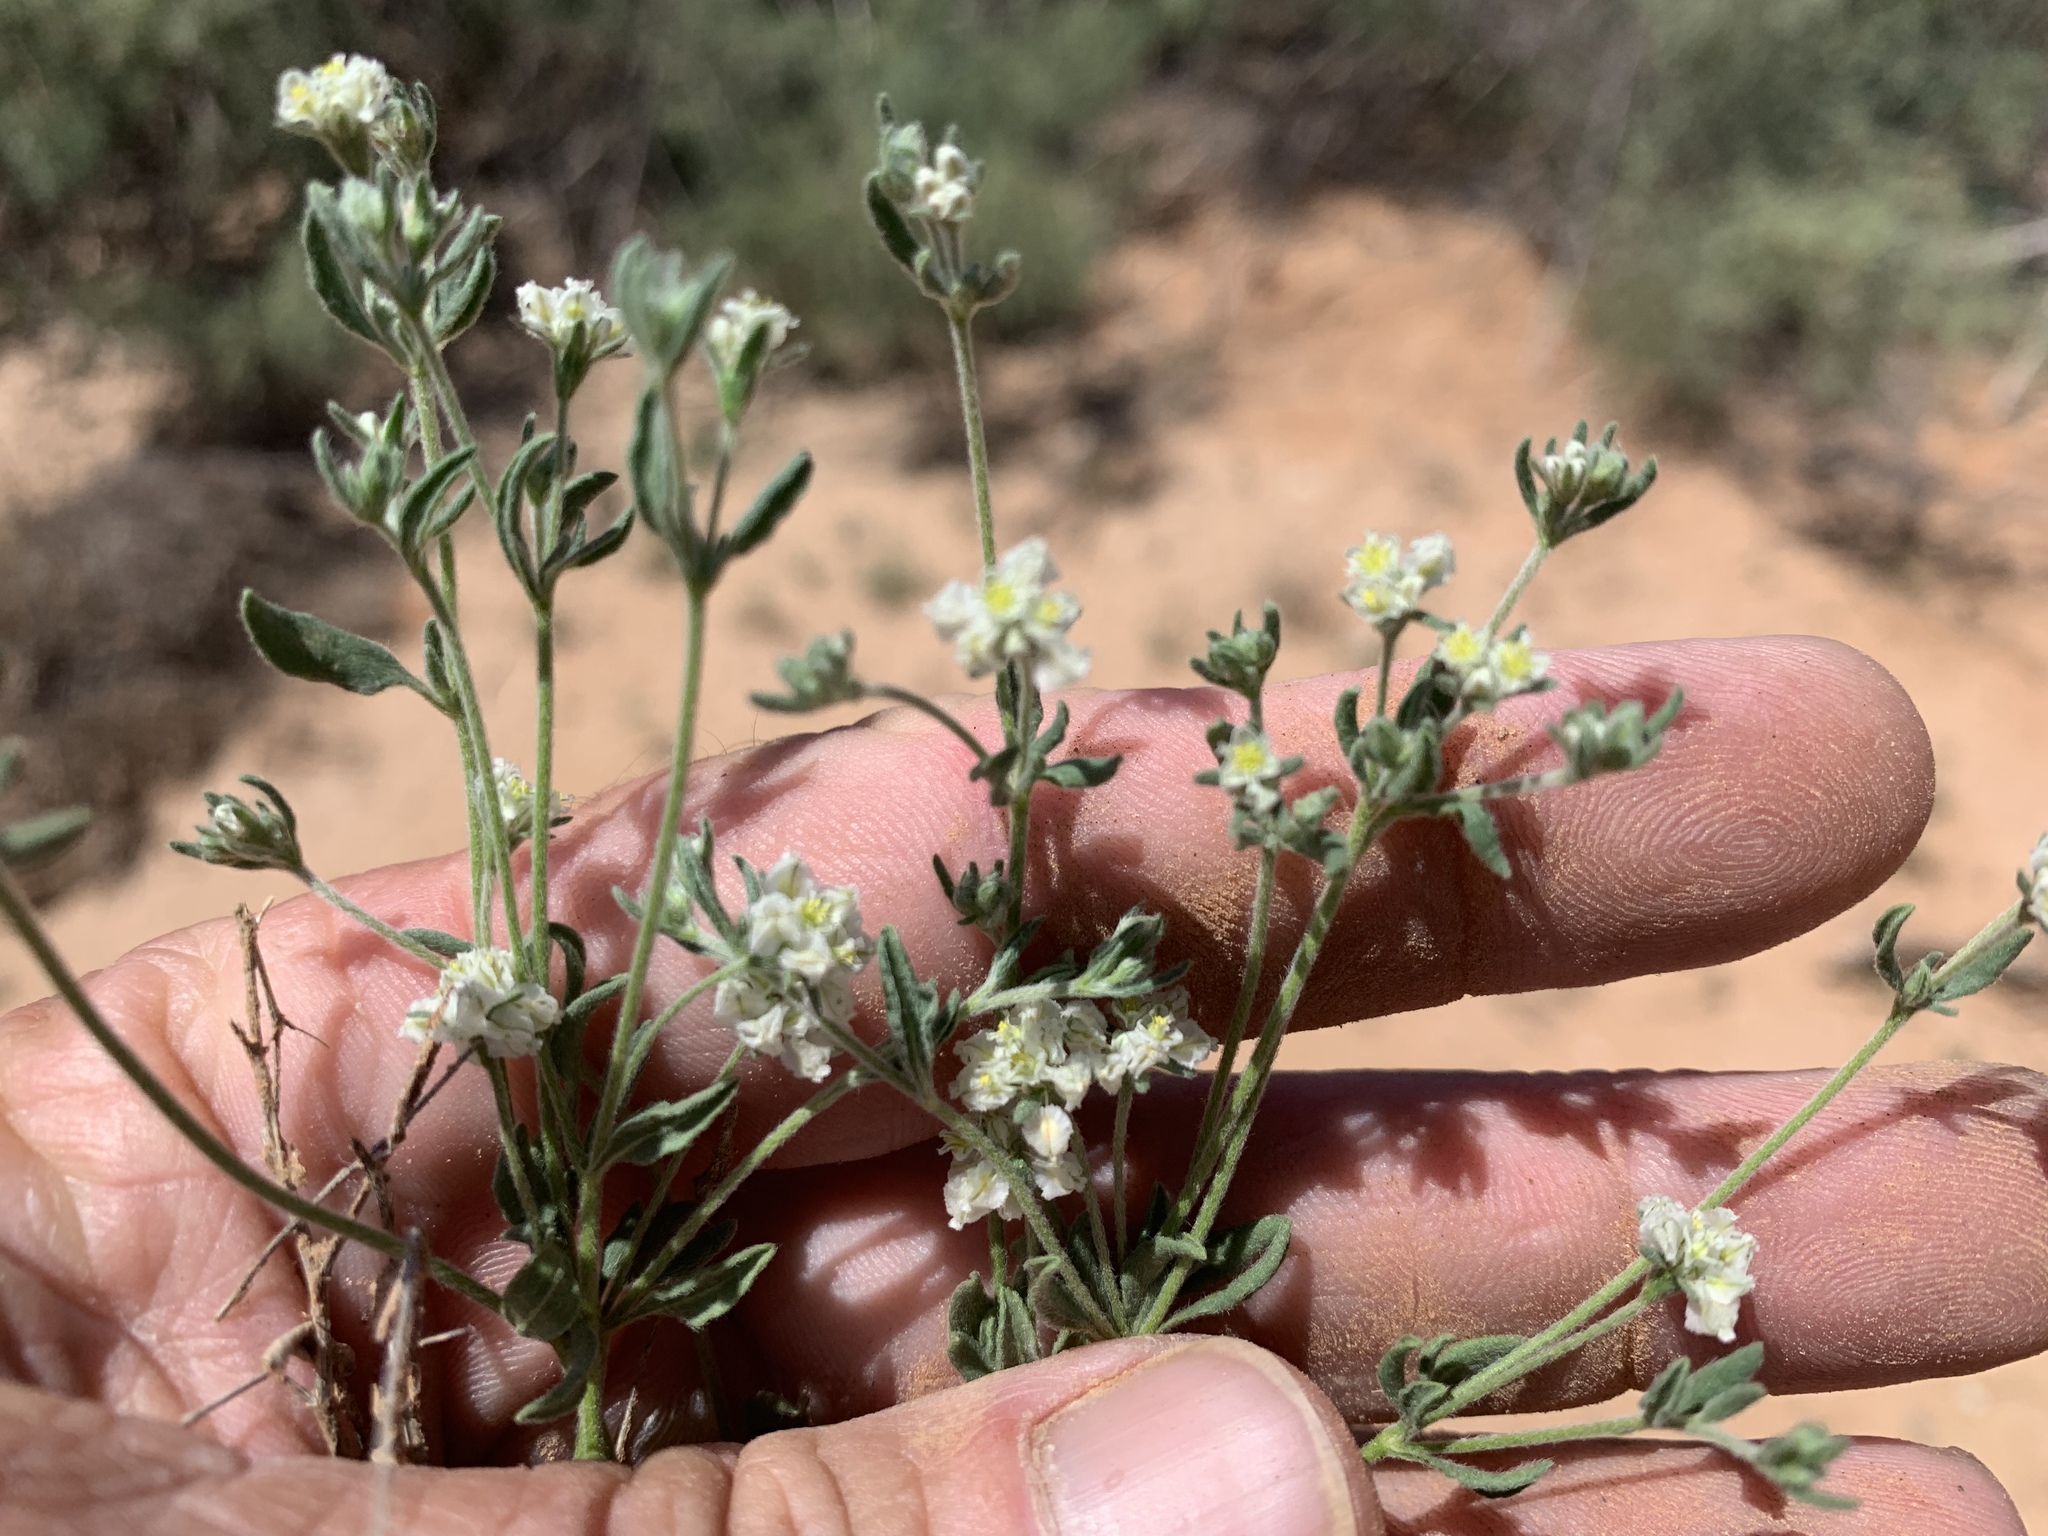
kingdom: Plantae
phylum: Tracheophyta
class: Magnoliopsida
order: Caryophyllales
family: Polygonaceae
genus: Eriogonum
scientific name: Eriogonum abertianum
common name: Abert's wild buckwheat
